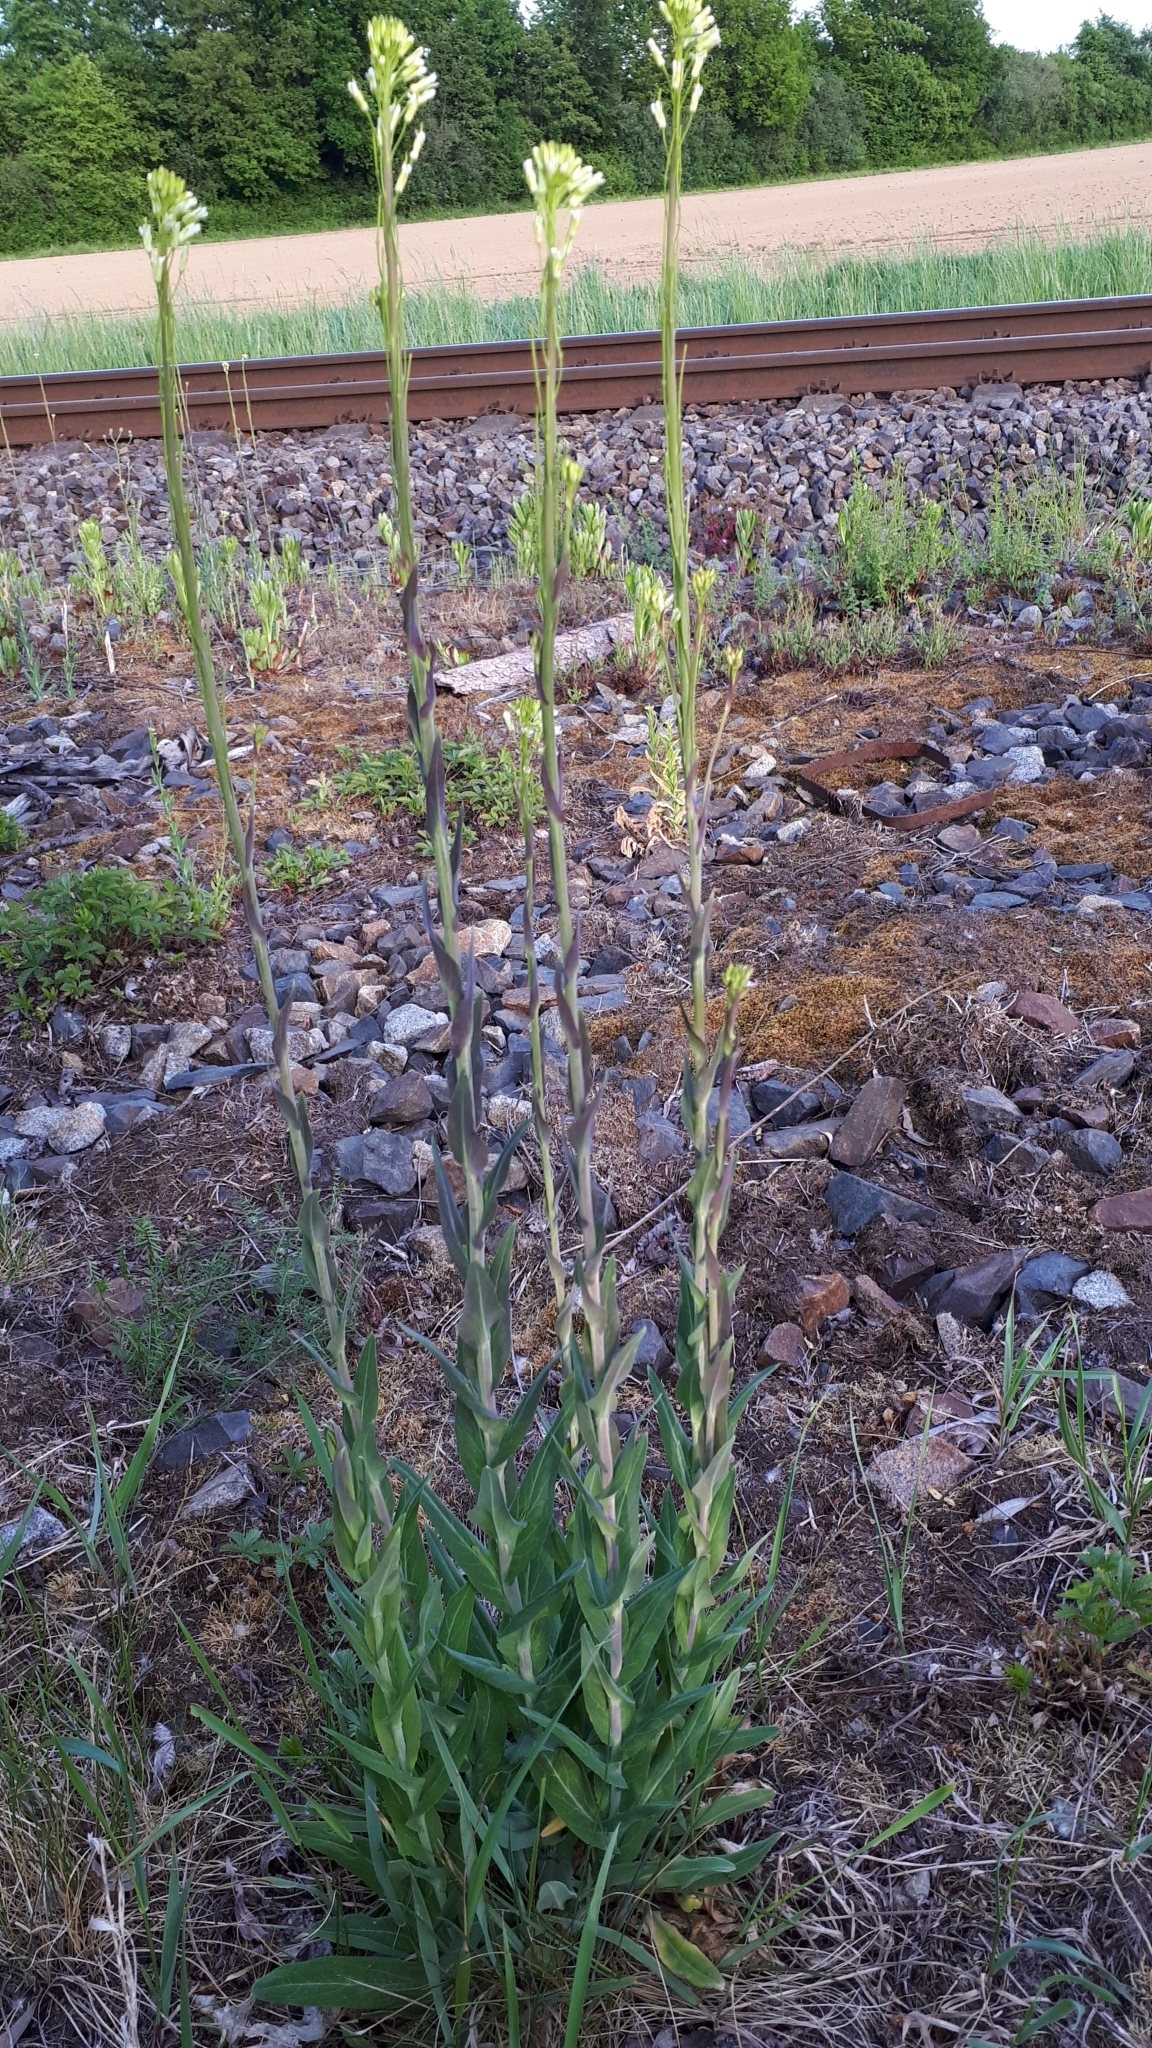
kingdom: Plantae
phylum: Tracheophyta
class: Magnoliopsida
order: Brassicales
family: Brassicaceae
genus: Turritis
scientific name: Turritis glabra
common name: Tower rockcress
